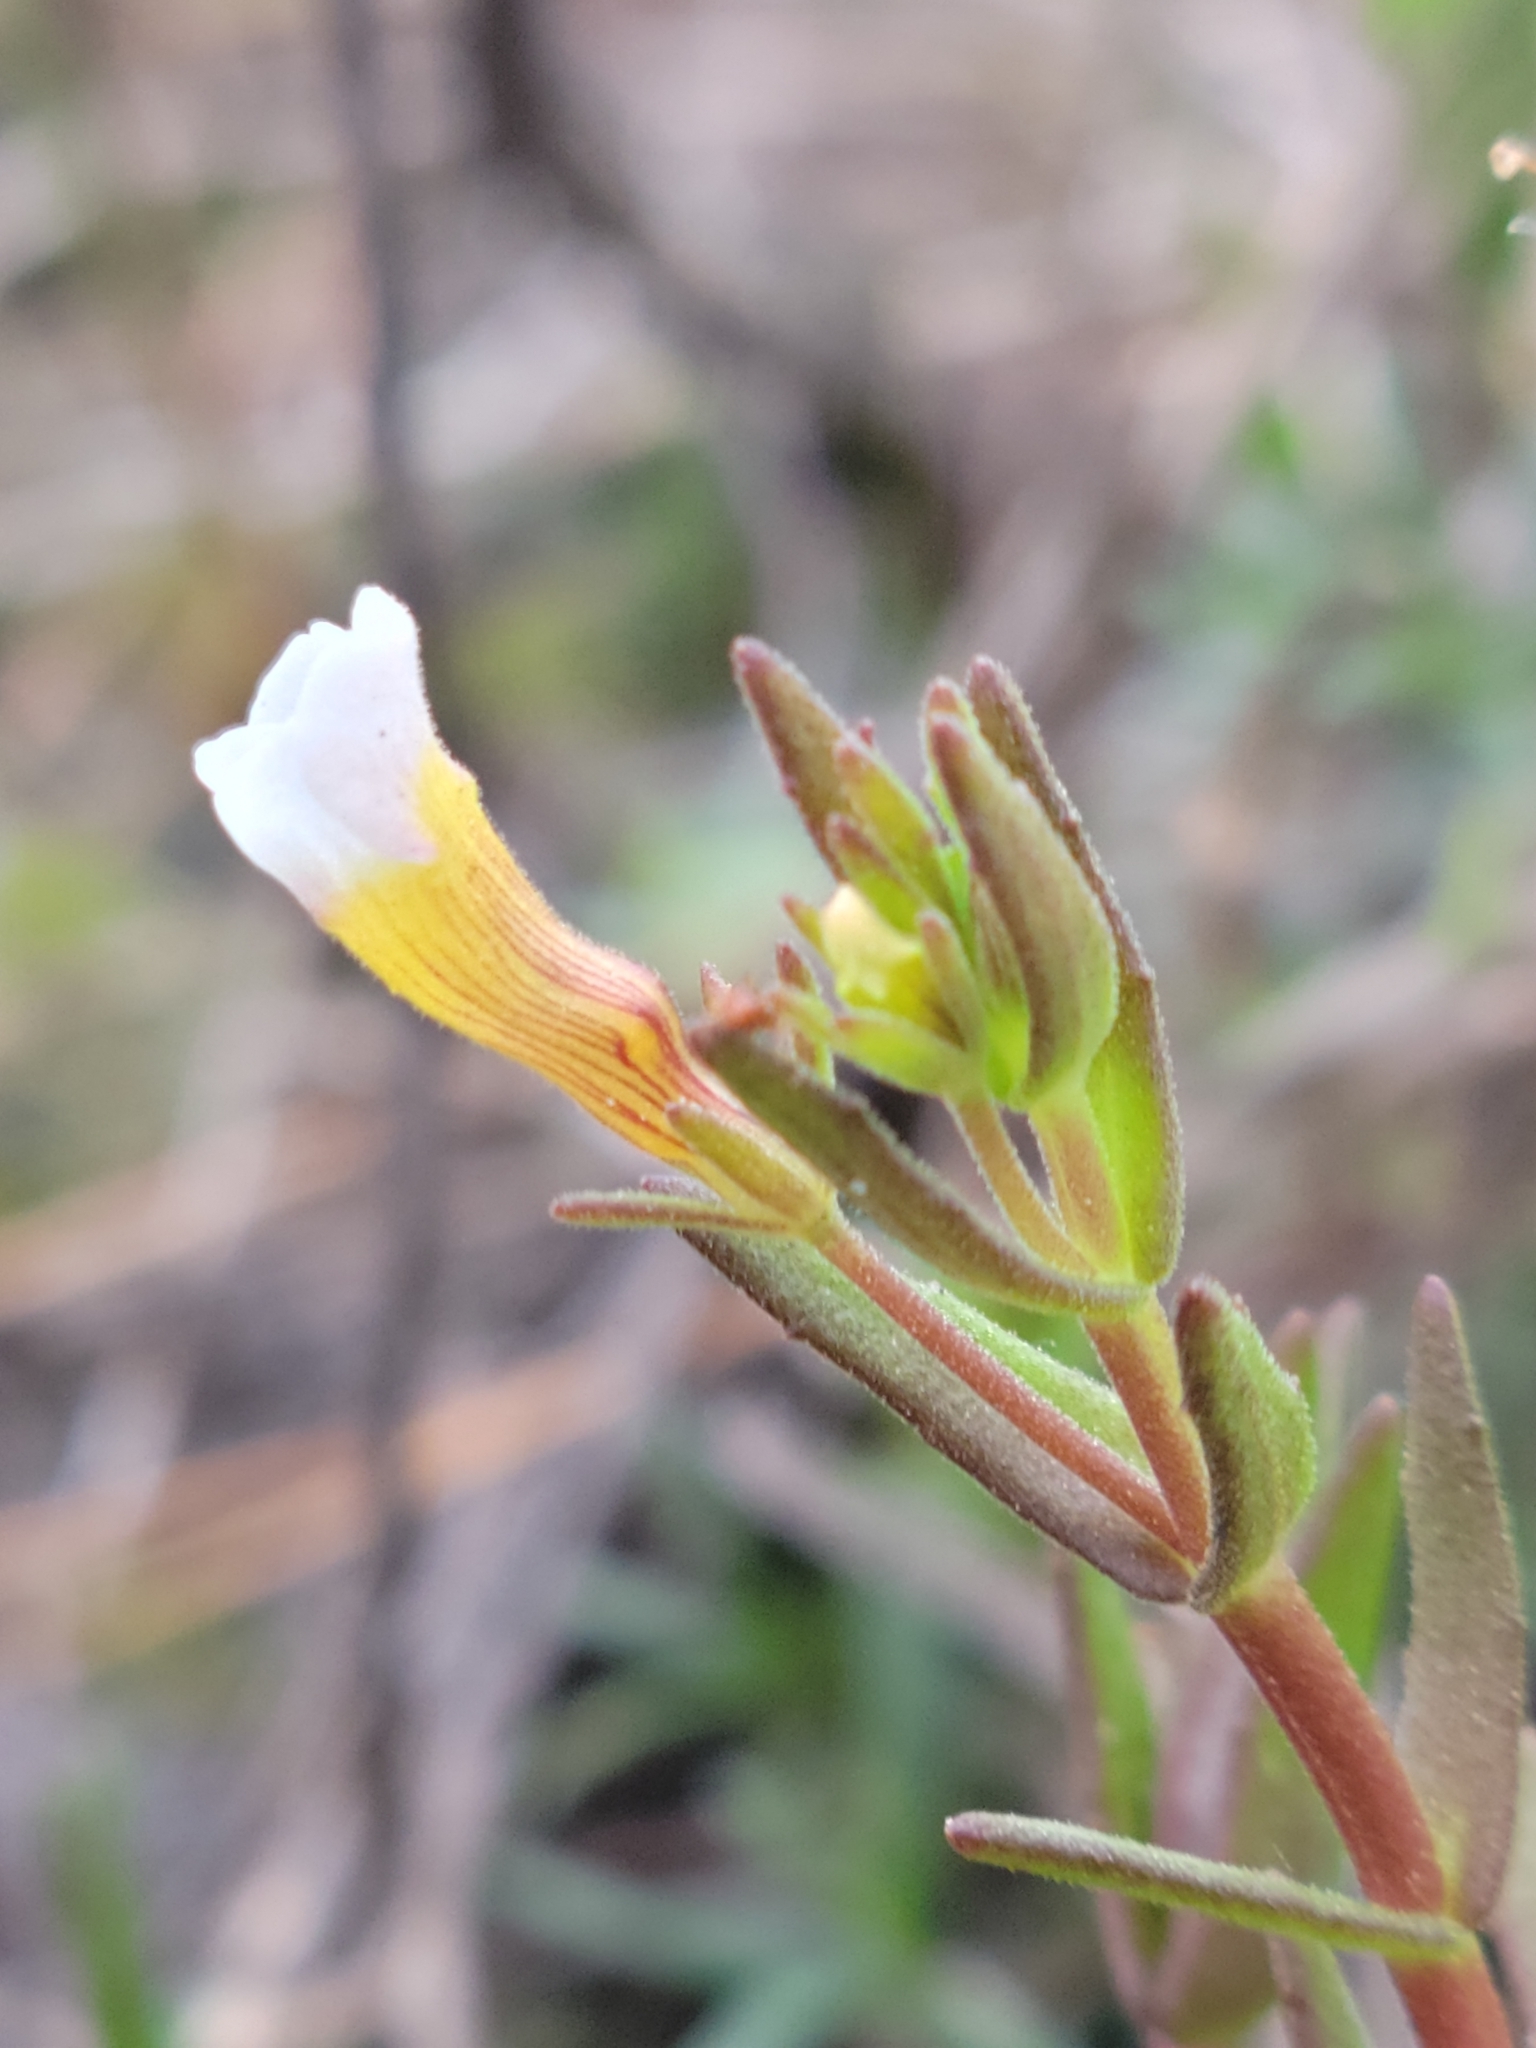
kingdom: Plantae
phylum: Tracheophyta
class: Magnoliopsida
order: Lamiales
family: Plantaginaceae
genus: Gratiola
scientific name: Gratiola ramosa
